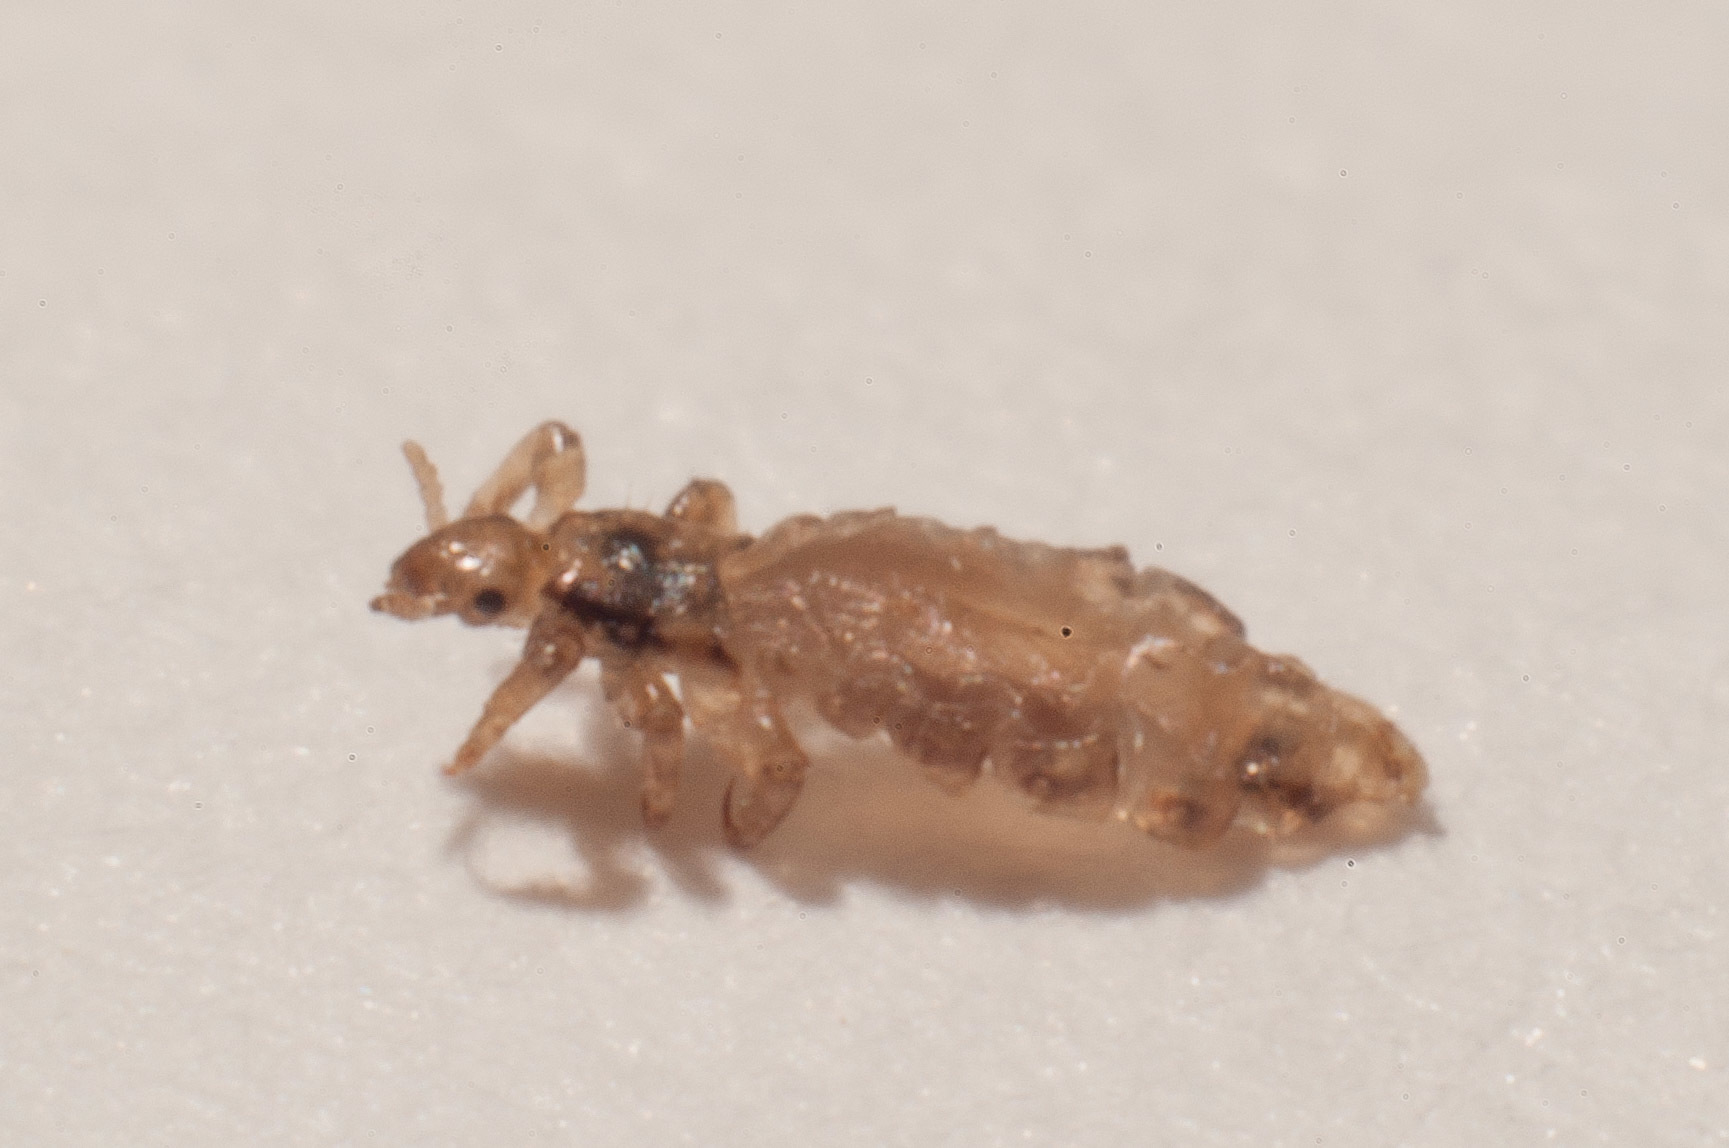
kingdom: Animalia
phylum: Arthropoda
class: Insecta
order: Psocodea
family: Pediculidae
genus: Pediculus
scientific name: Pediculus humanus
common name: Body louse
